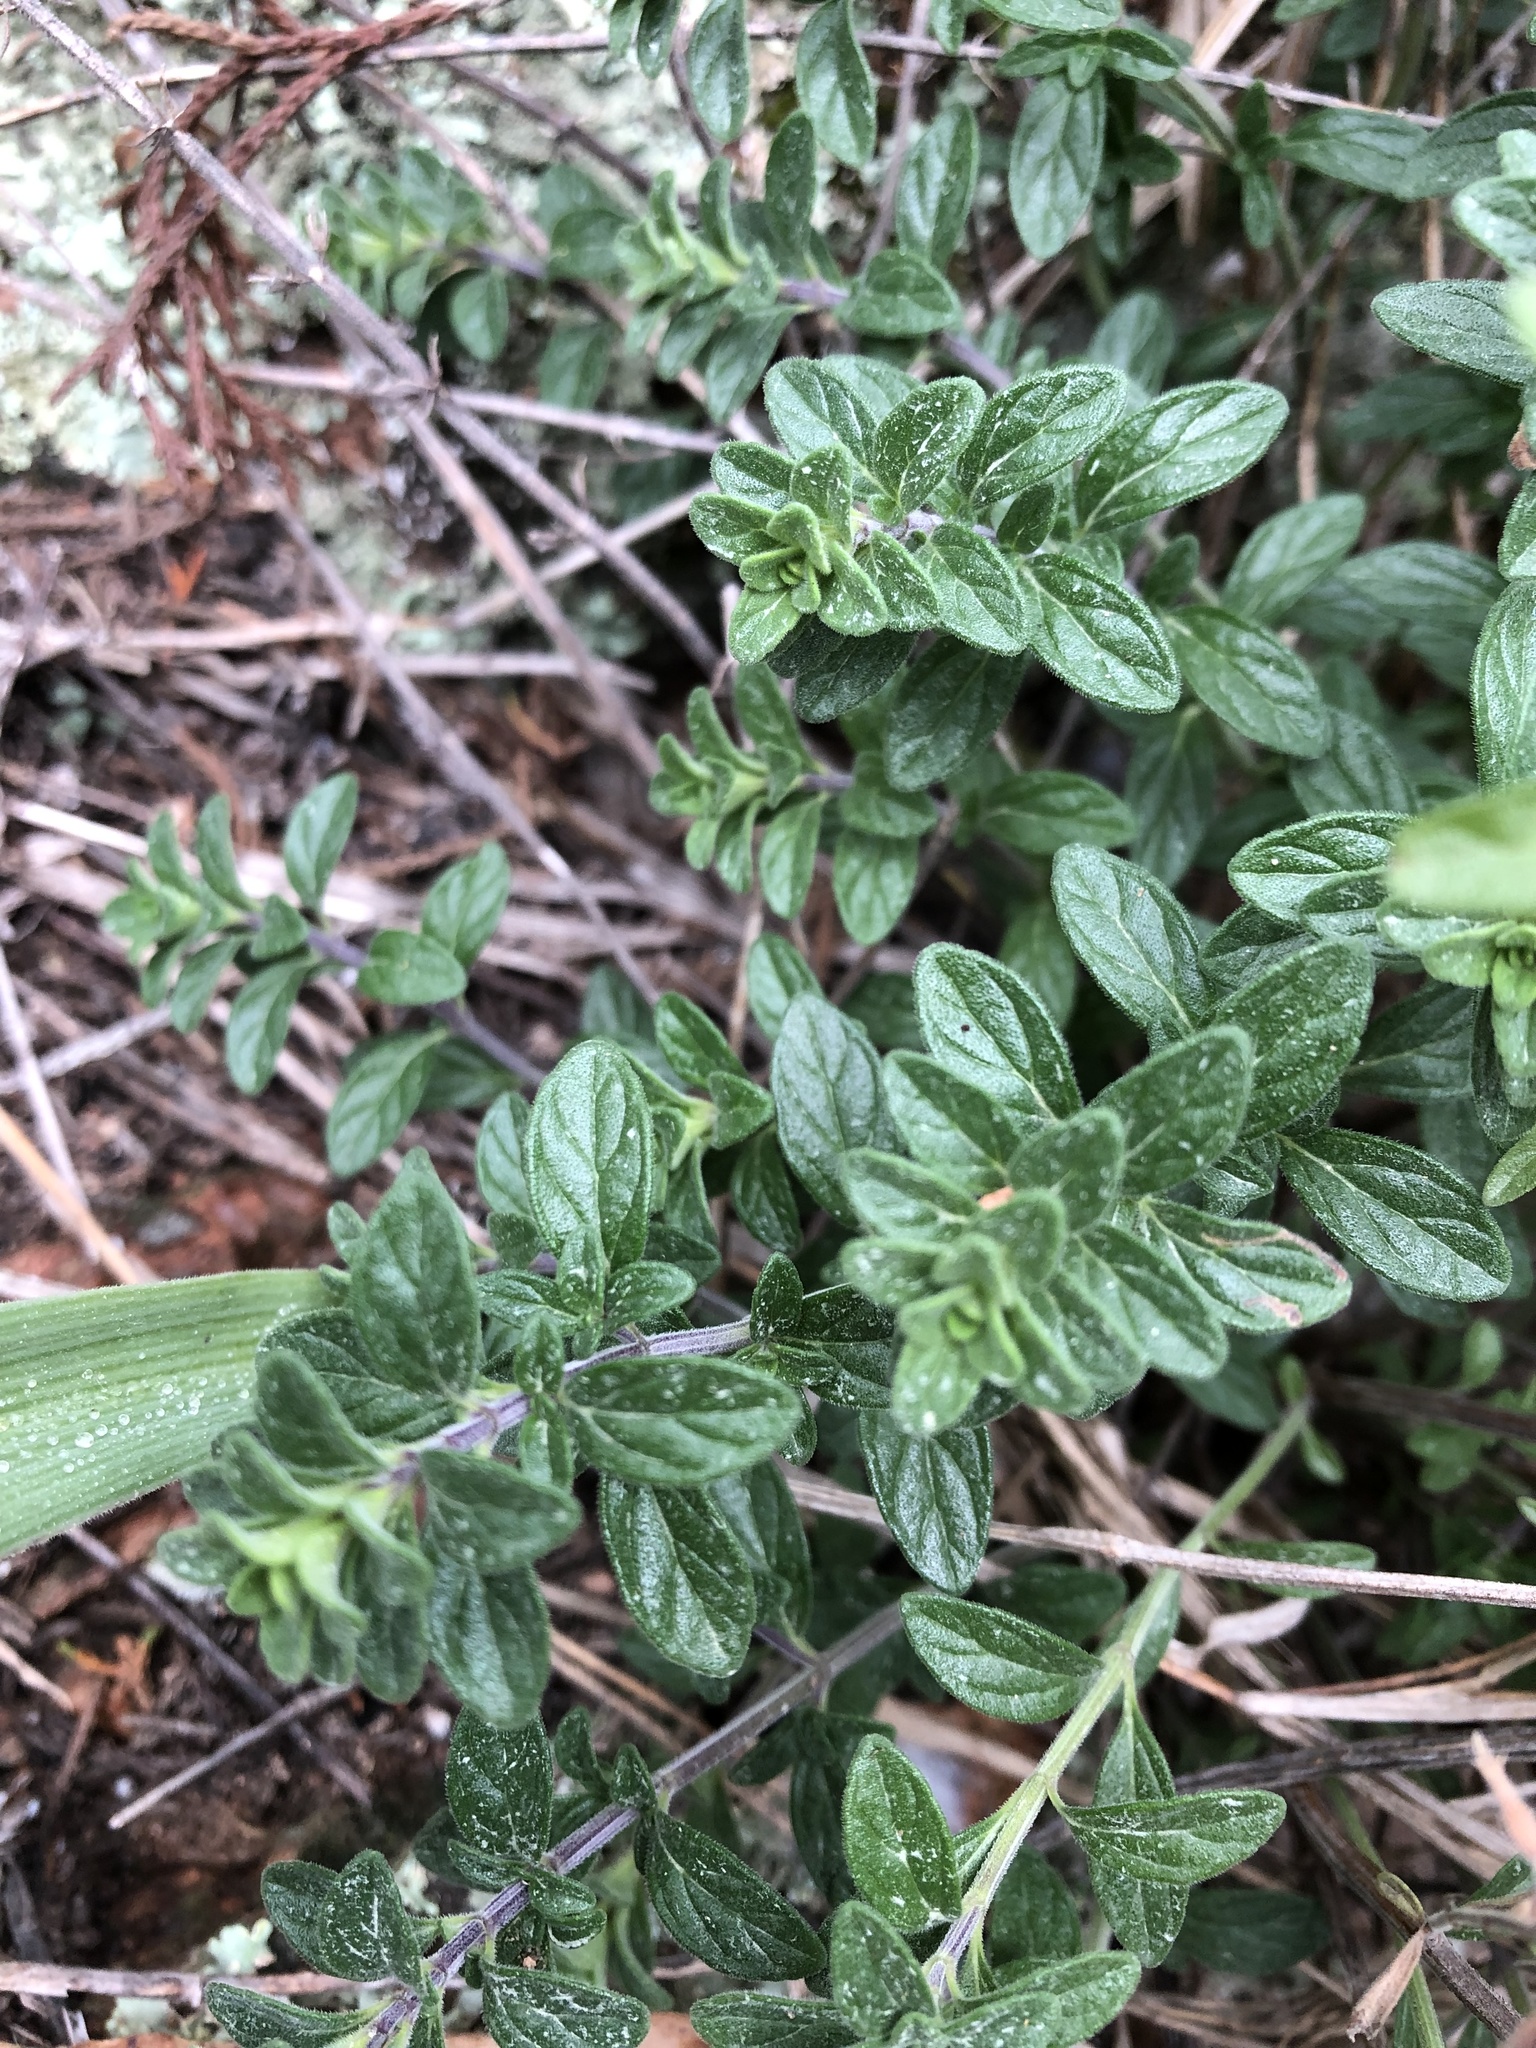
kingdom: Plantae
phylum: Tracheophyta
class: Magnoliopsida
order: Lamiales
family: Lamiaceae
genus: Hedeoma
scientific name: Hedeoma reverchonii
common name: Reverchon's false penny-royal
